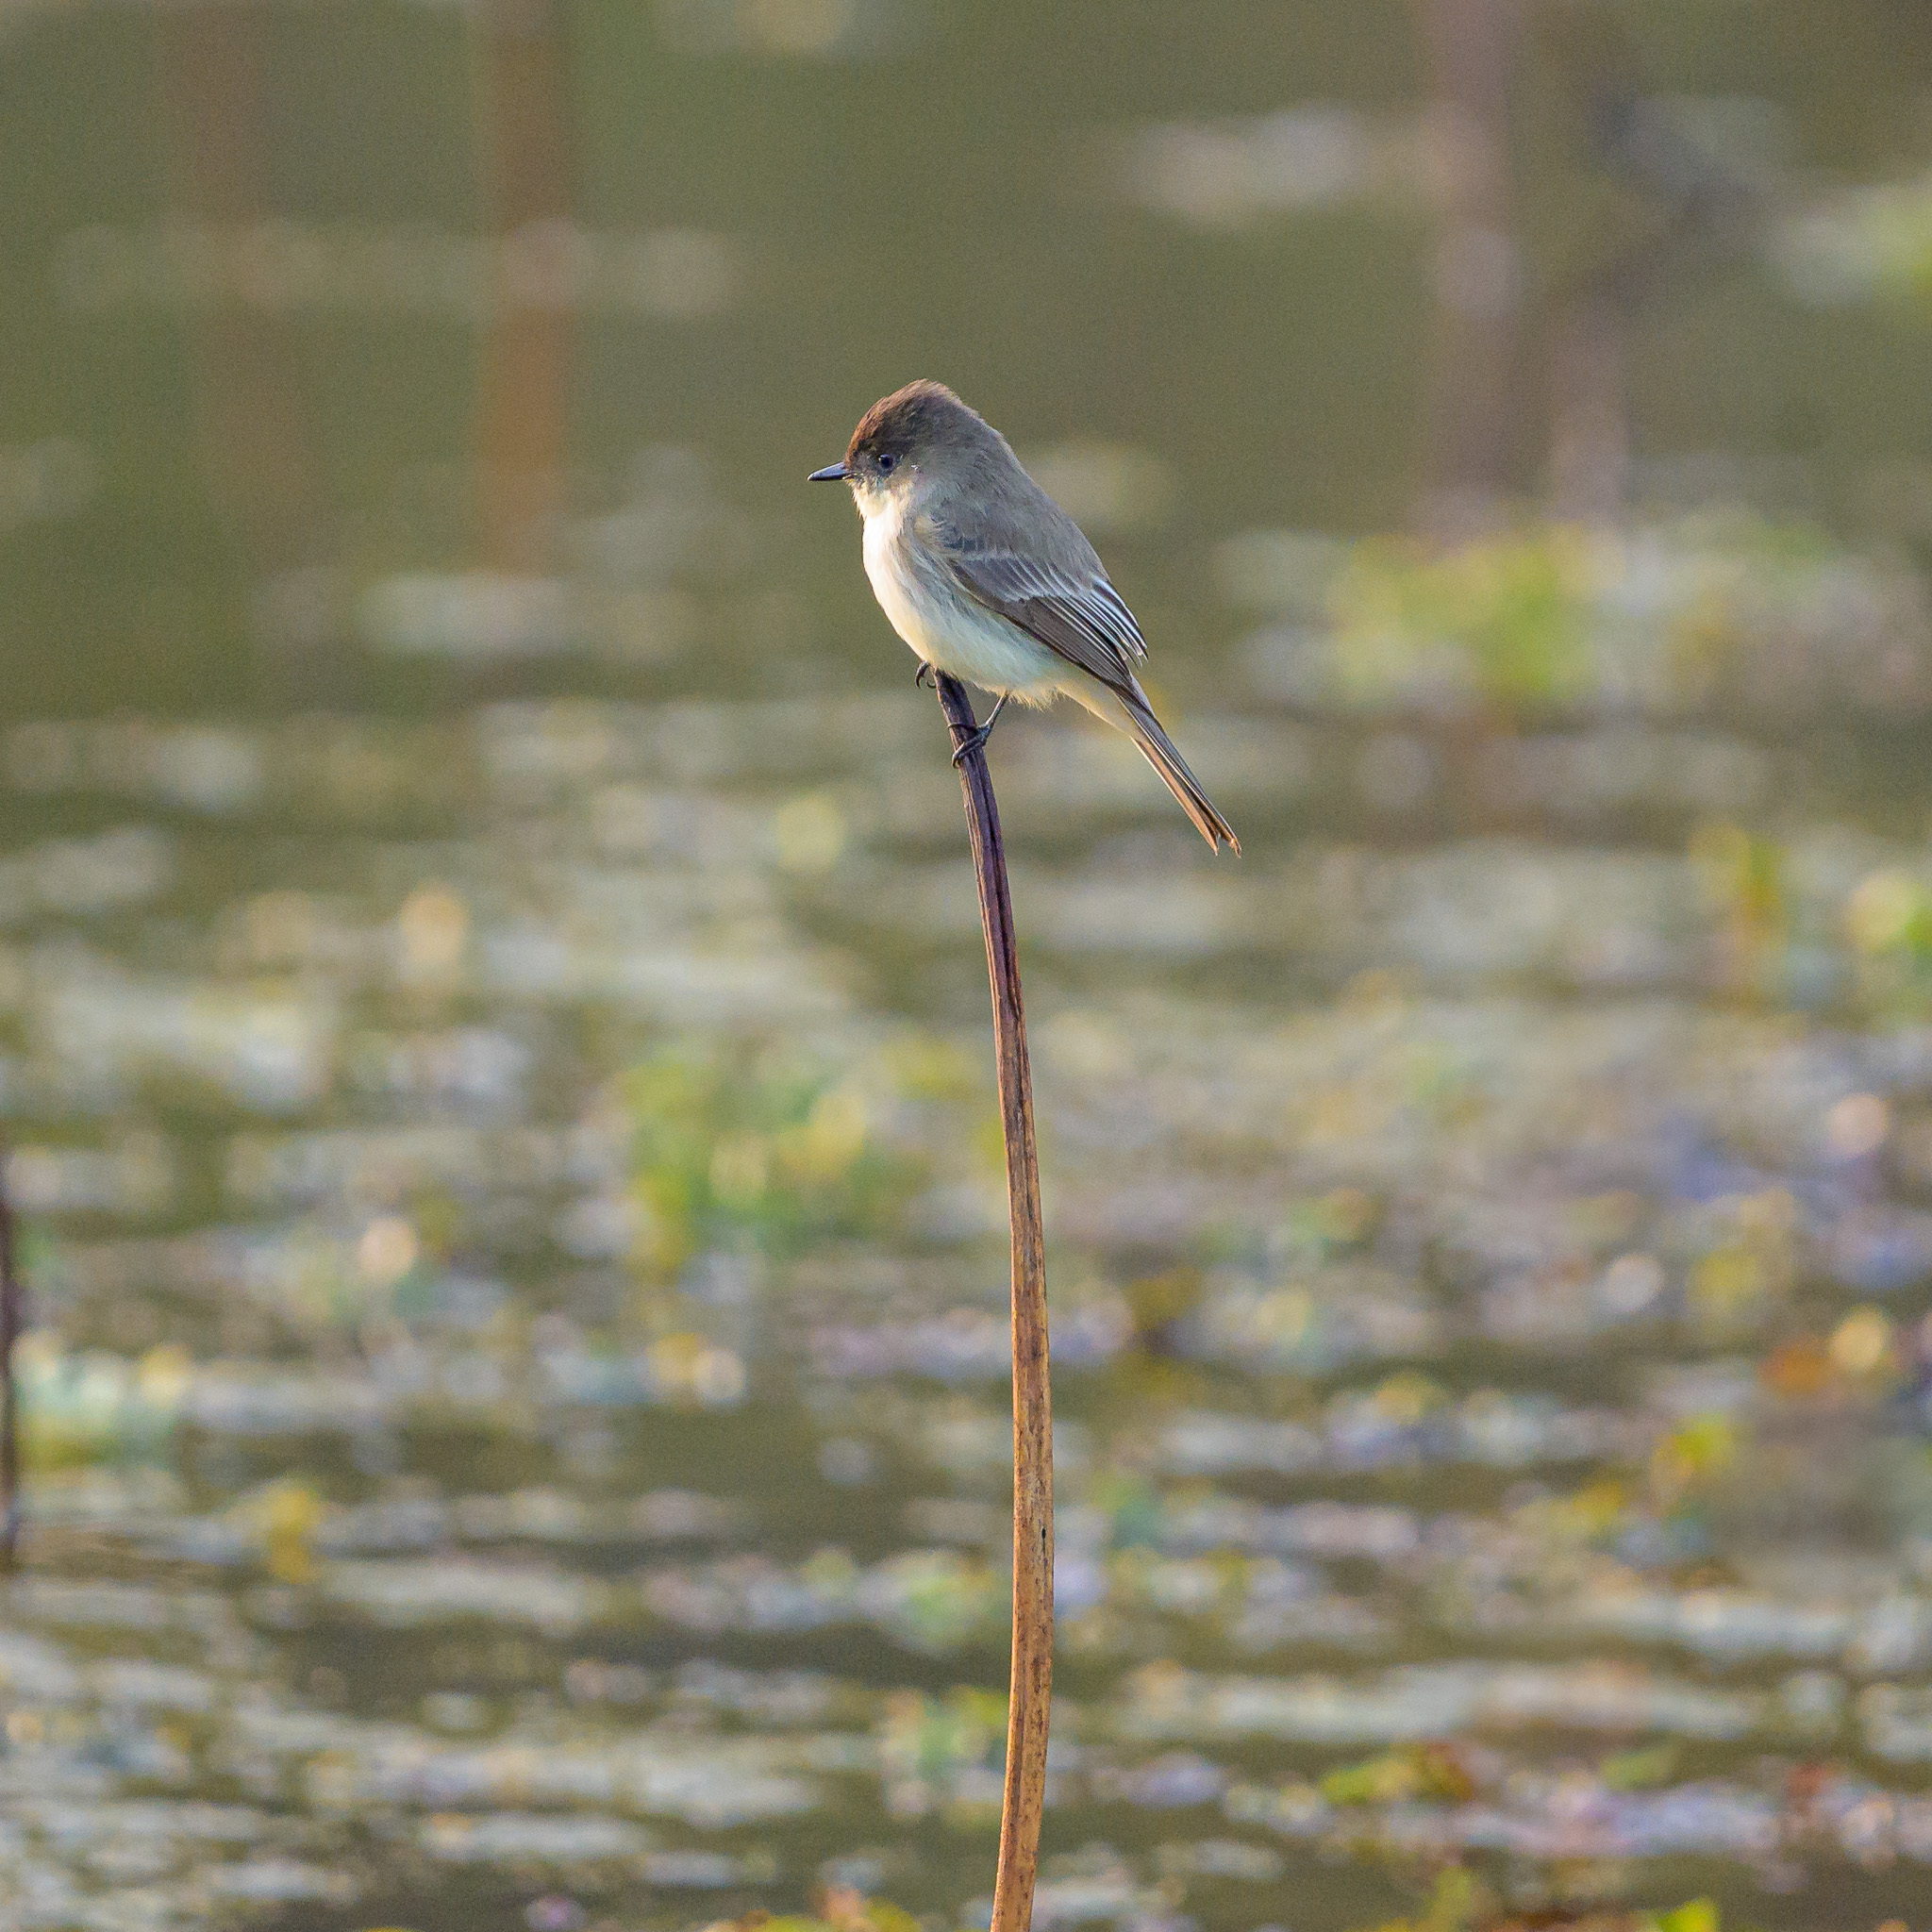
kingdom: Animalia
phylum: Chordata
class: Aves
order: Passeriformes
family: Tyrannidae
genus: Sayornis
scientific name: Sayornis phoebe
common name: Eastern phoebe
